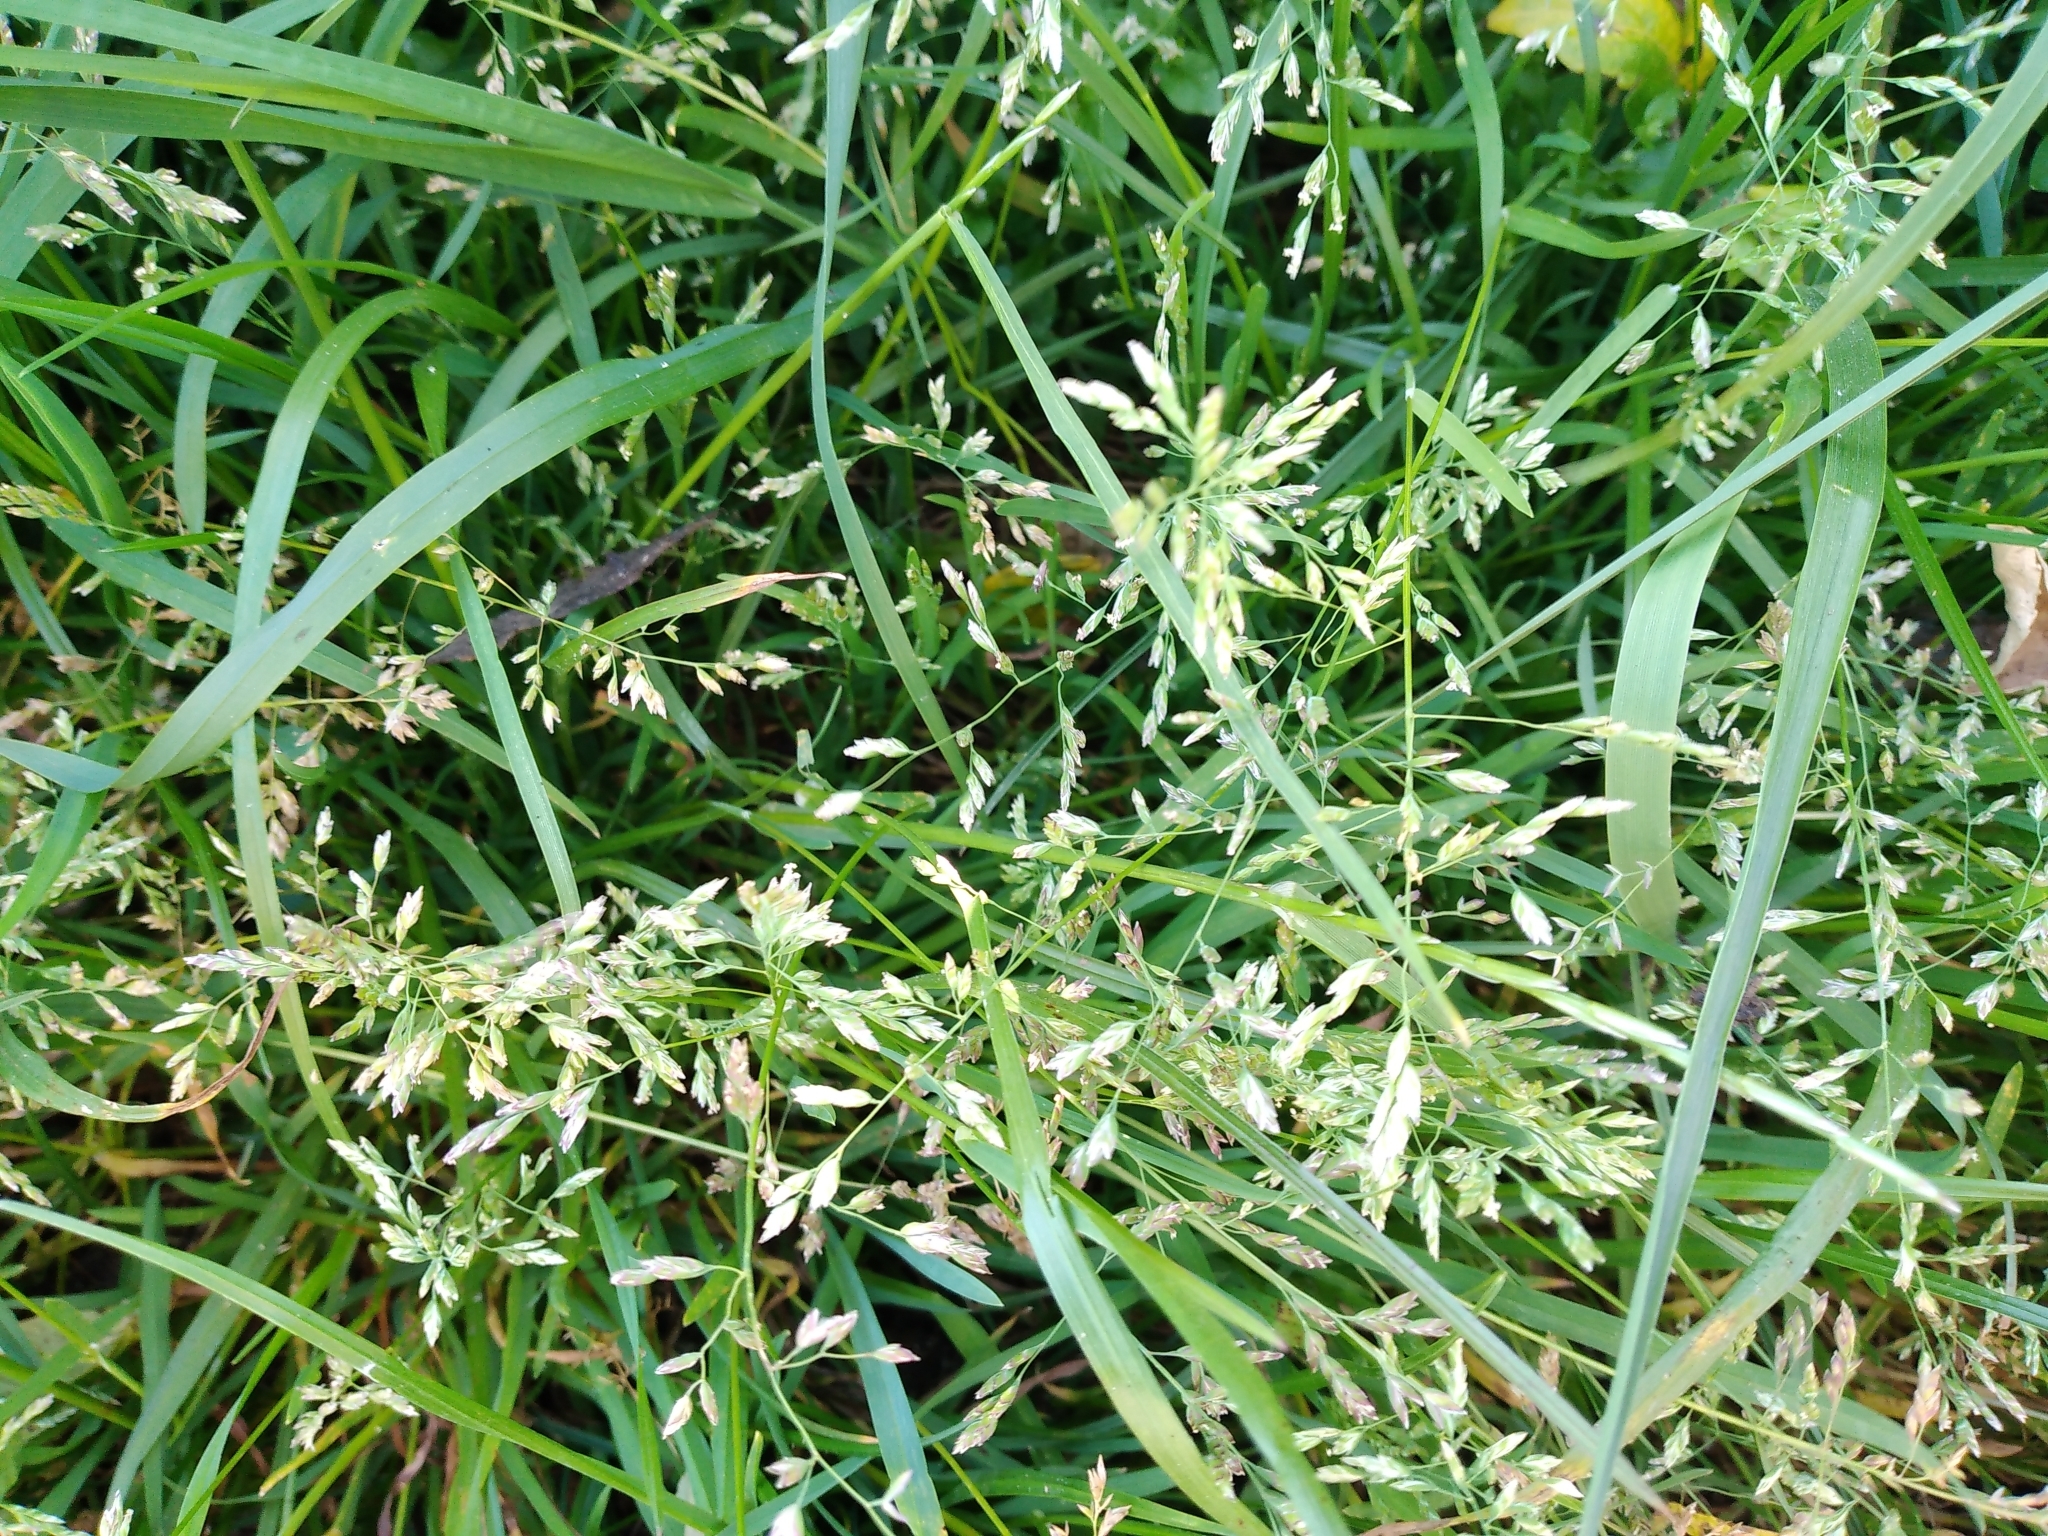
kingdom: Plantae
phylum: Tracheophyta
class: Liliopsida
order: Poales
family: Poaceae
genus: Poa
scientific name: Poa annua
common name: Annual bluegrass
